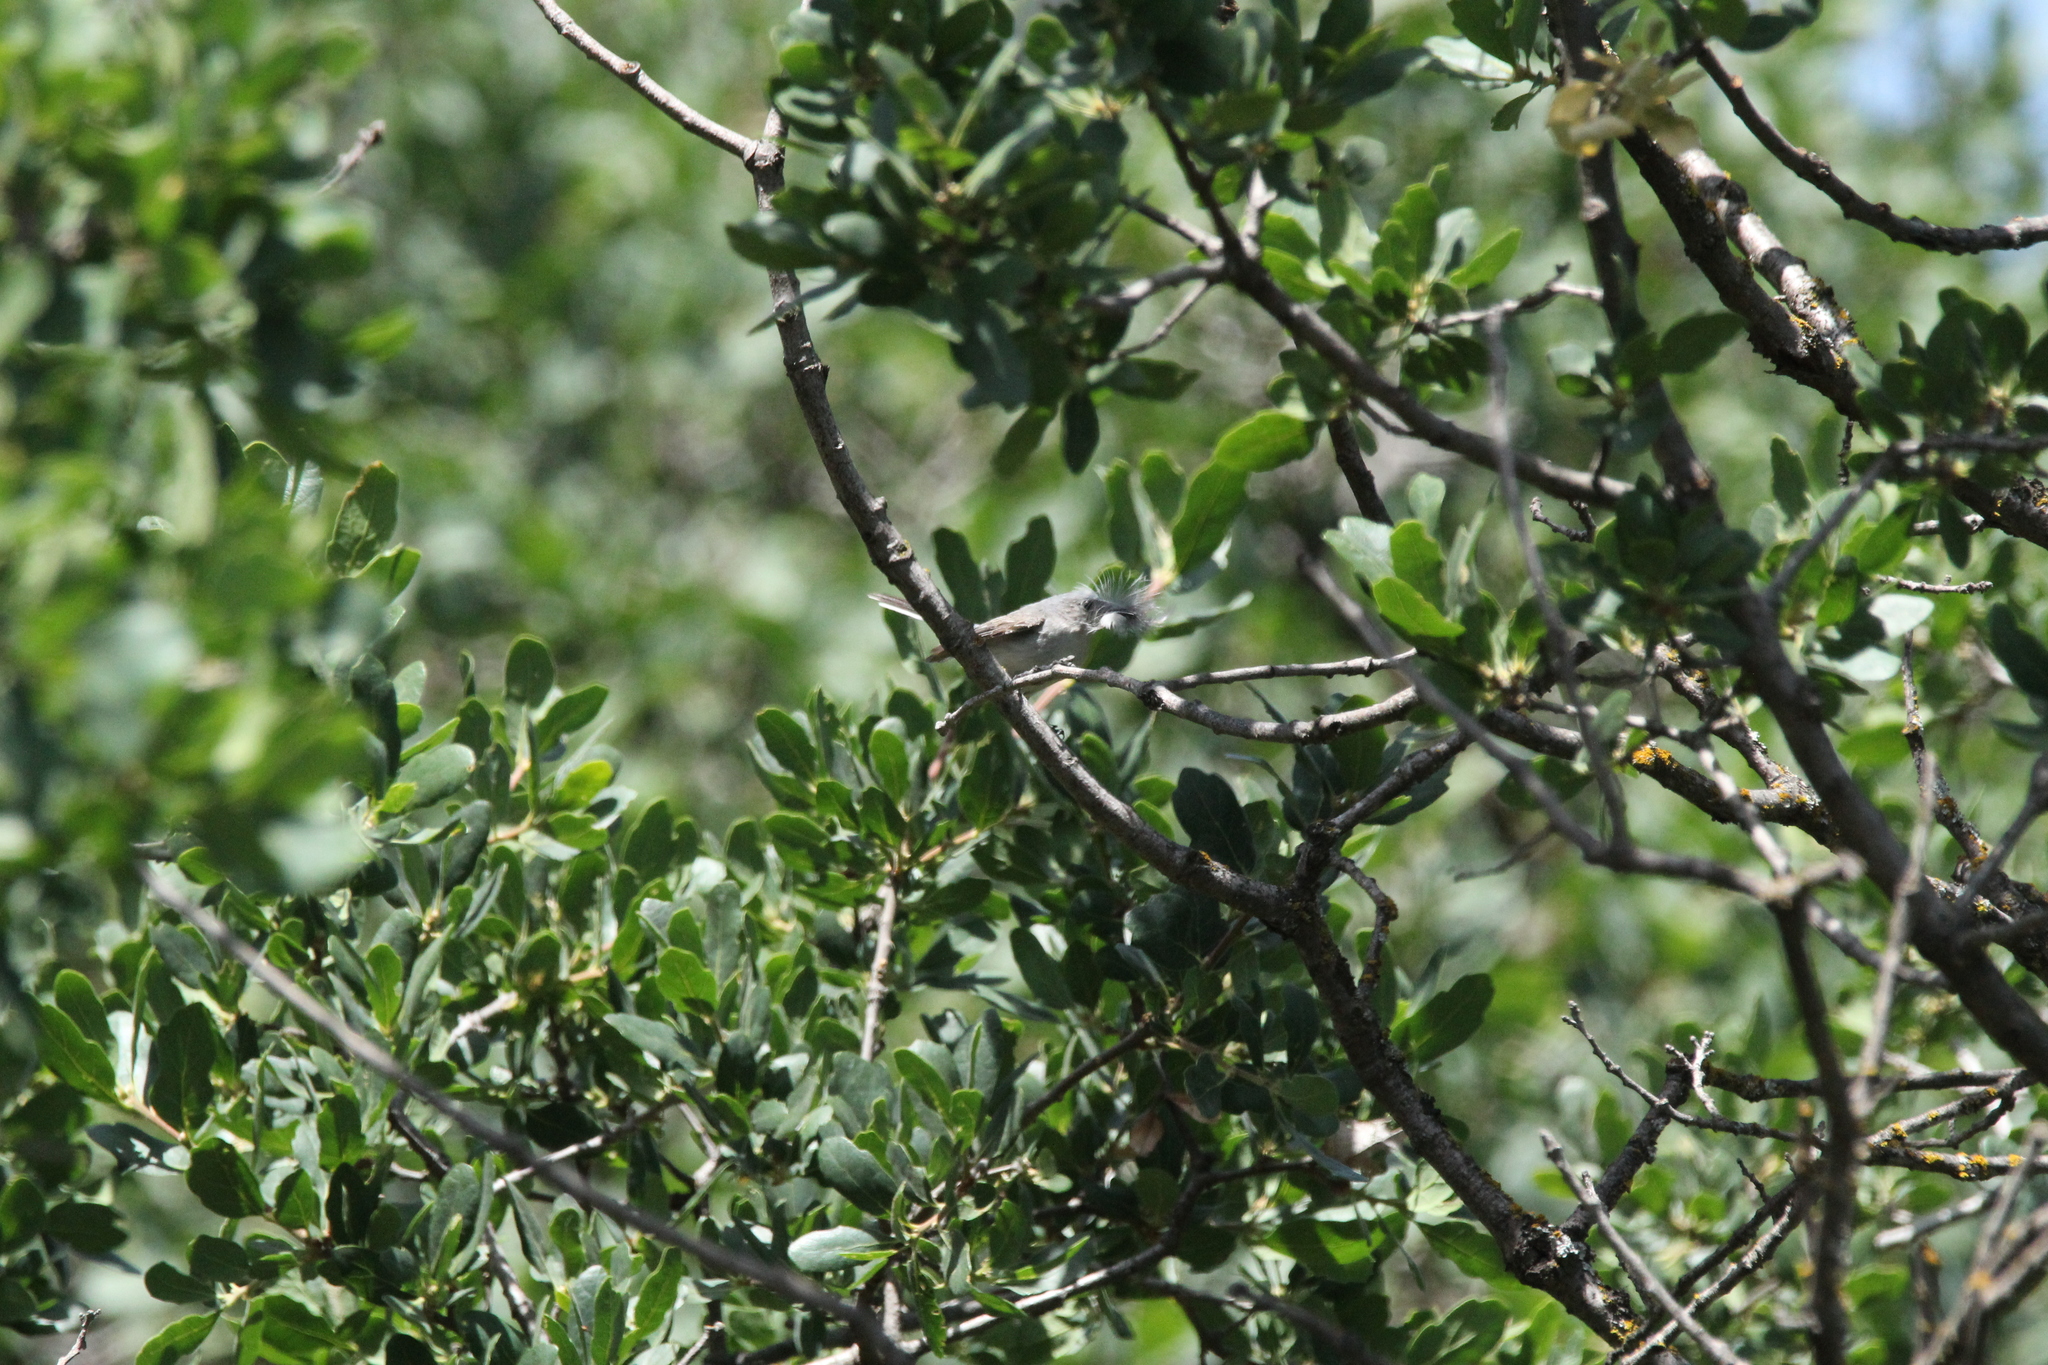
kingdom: Animalia
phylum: Chordata
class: Aves
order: Passeriformes
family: Polioptilidae
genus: Polioptila
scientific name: Polioptila caerulea
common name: Blue-gray gnatcatcher
